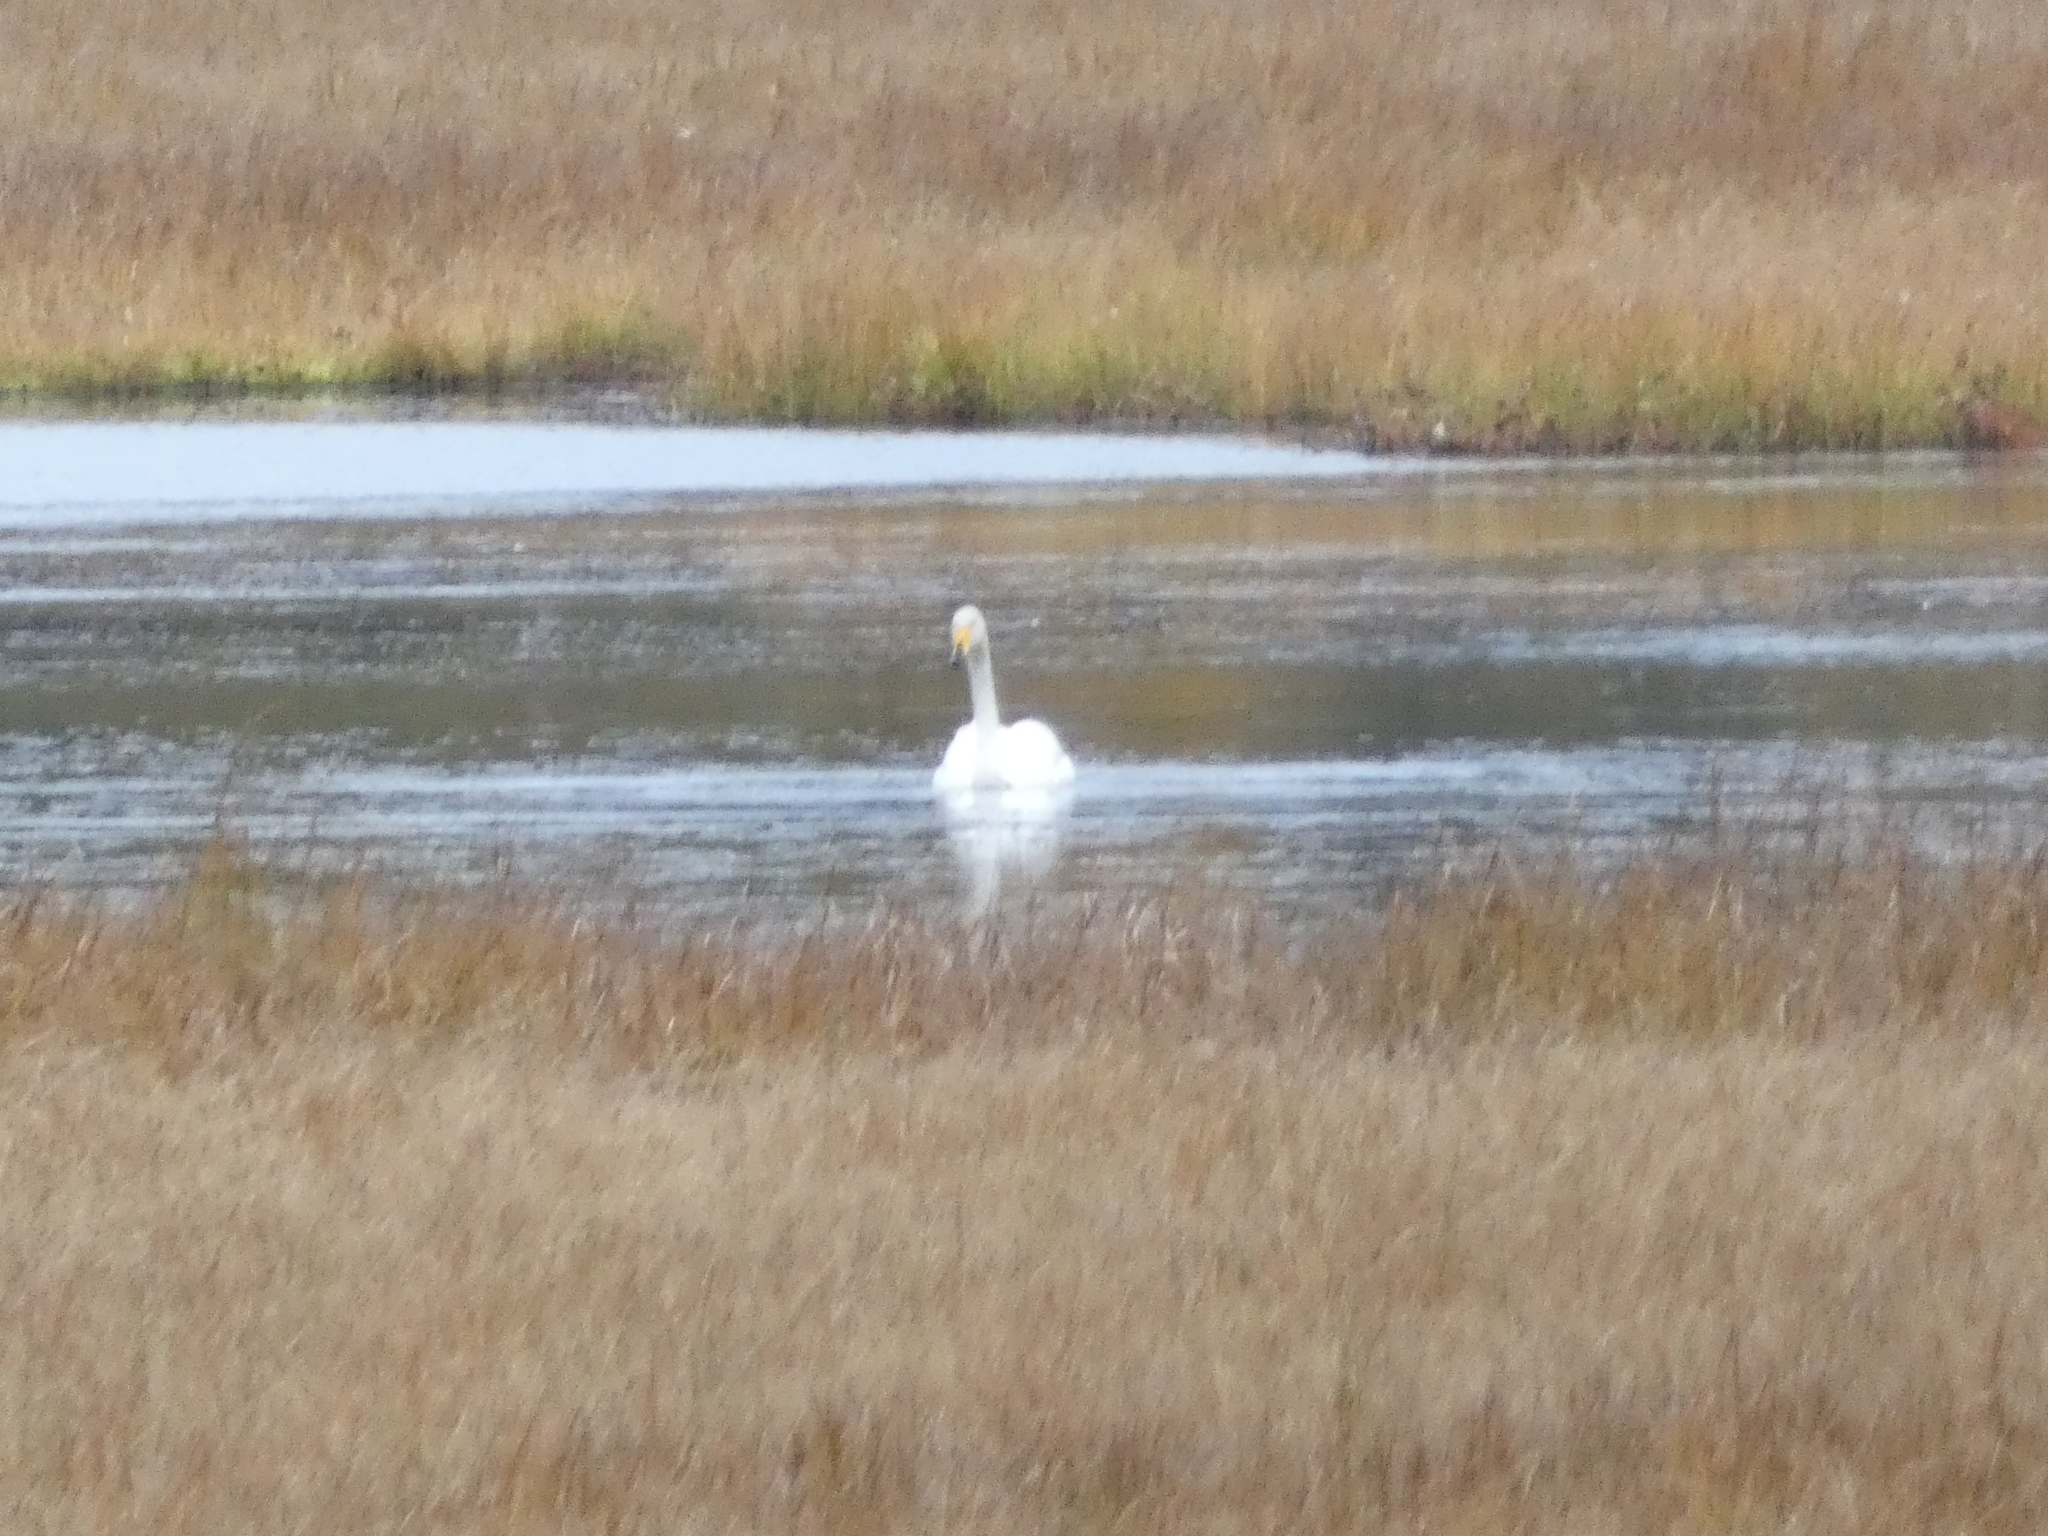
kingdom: Animalia
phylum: Chordata
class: Aves
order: Anseriformes
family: Anatidae
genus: Cygnus
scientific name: Cygnus cygnus
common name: Whooper swan
